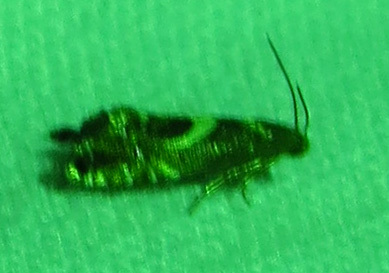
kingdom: Animalia
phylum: Arthropoda
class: Insecta
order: Lepidoptera
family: Glyphipterigidae
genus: Glyphipterix
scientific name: Glyphipterix Diploschizia impigritella
